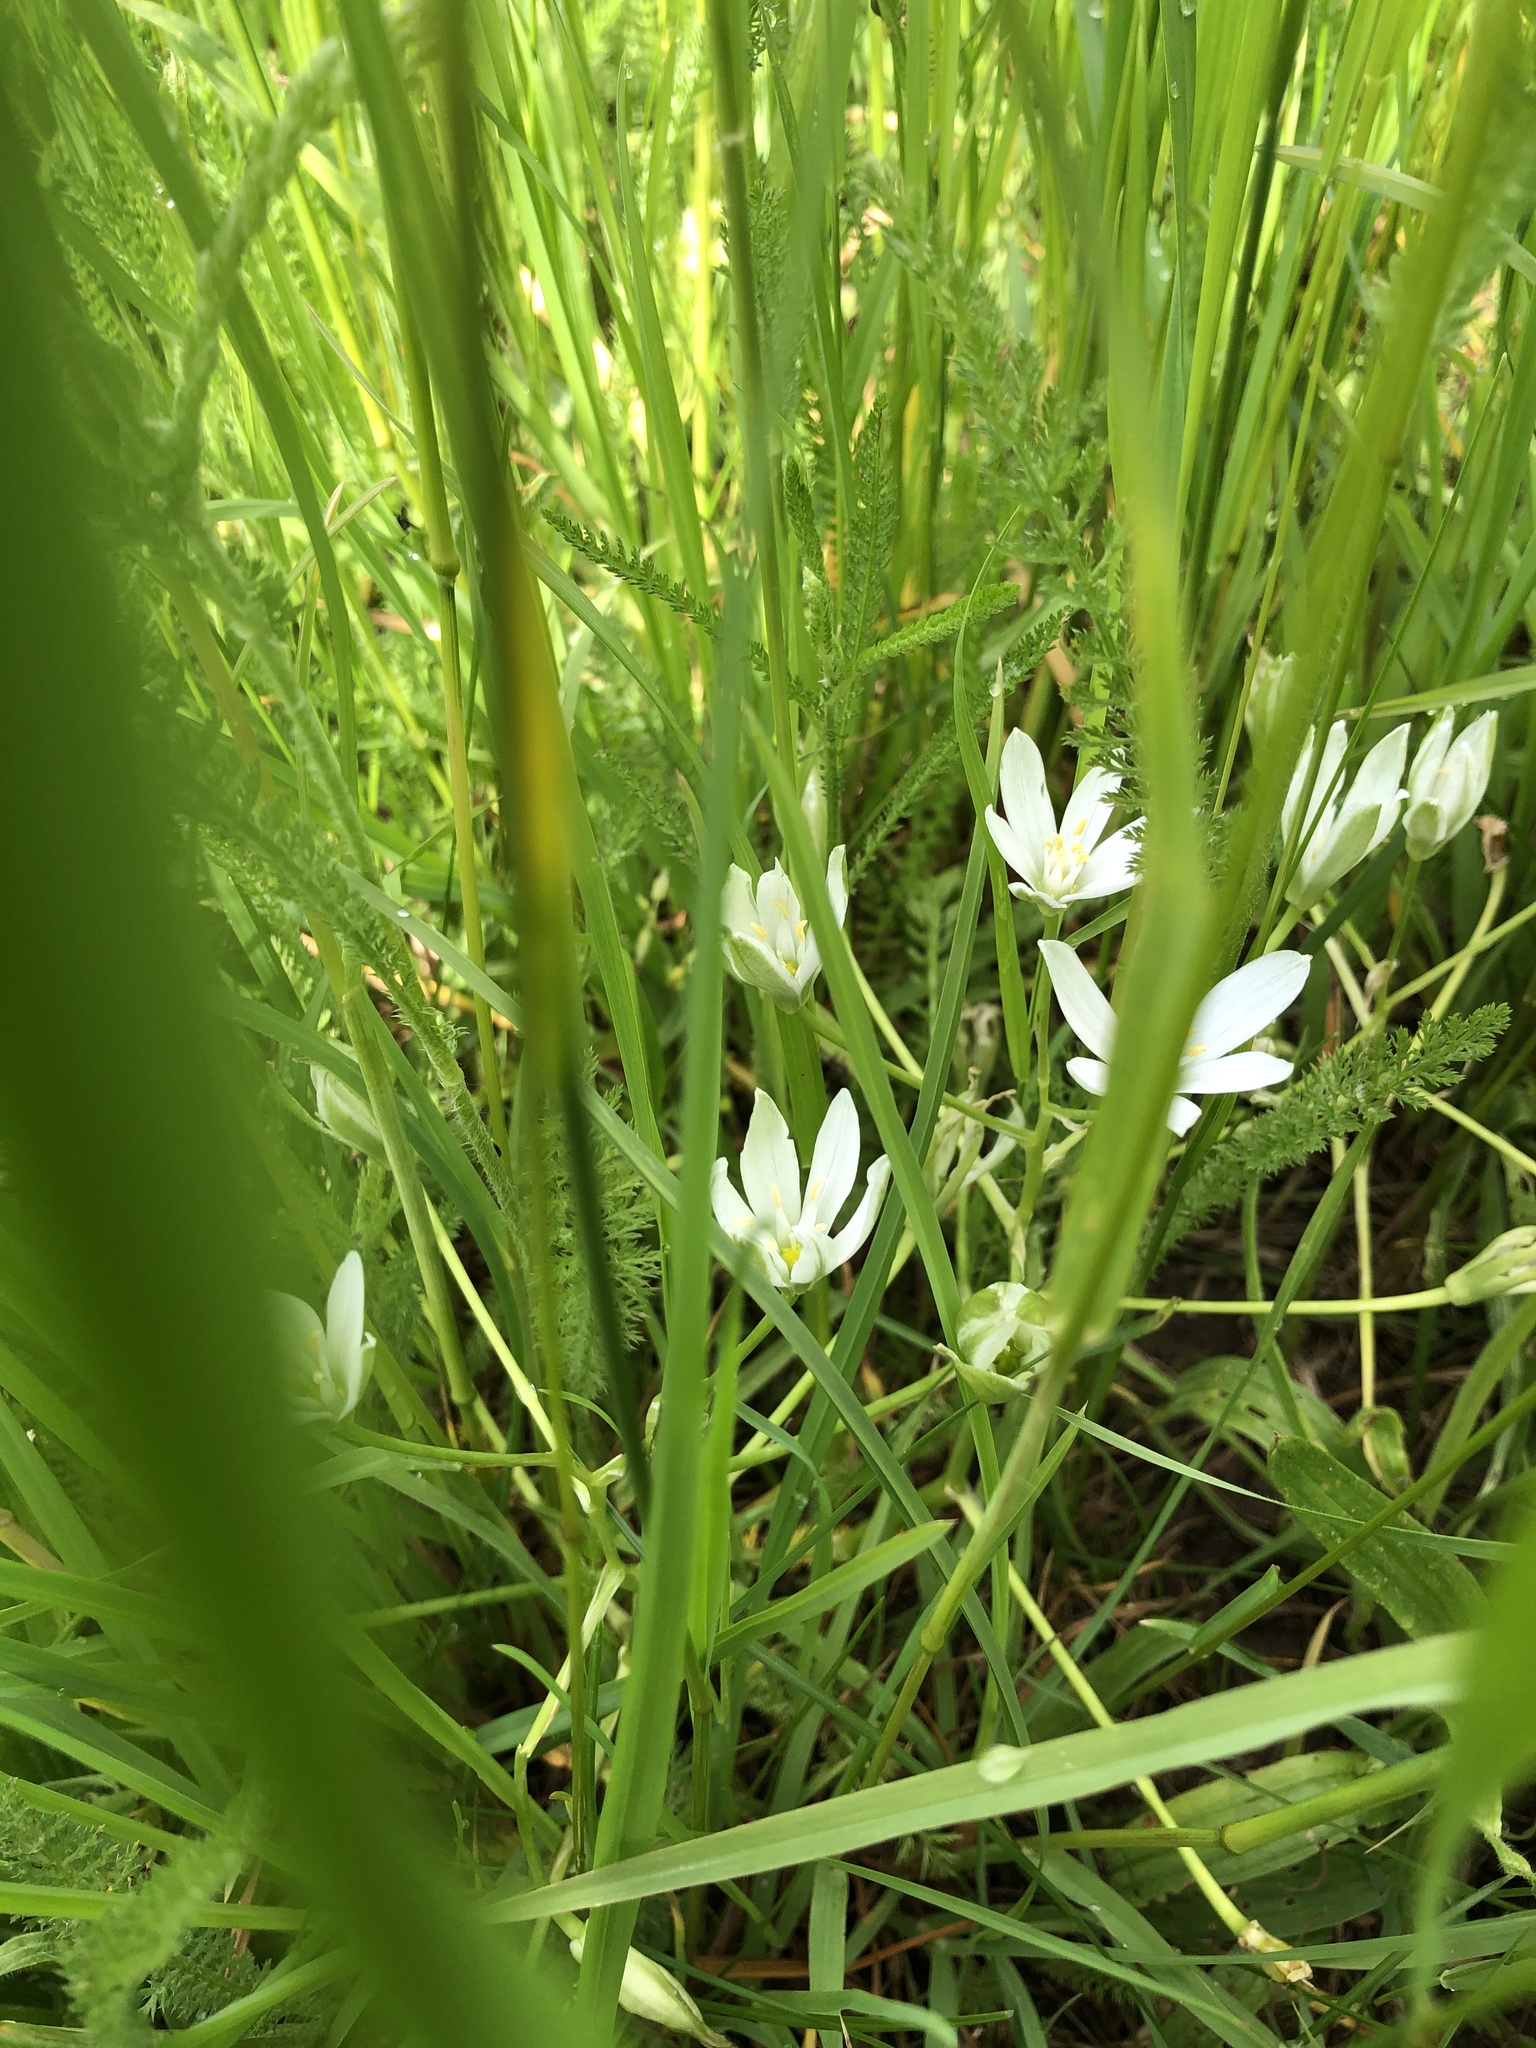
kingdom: Plantae
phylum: Tracheophyta
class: Liliopsida
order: Asparagales
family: Asparagaceae
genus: Ornithogalum
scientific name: Ornithogalum umbellatum
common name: Garden star-of-bethlehem
